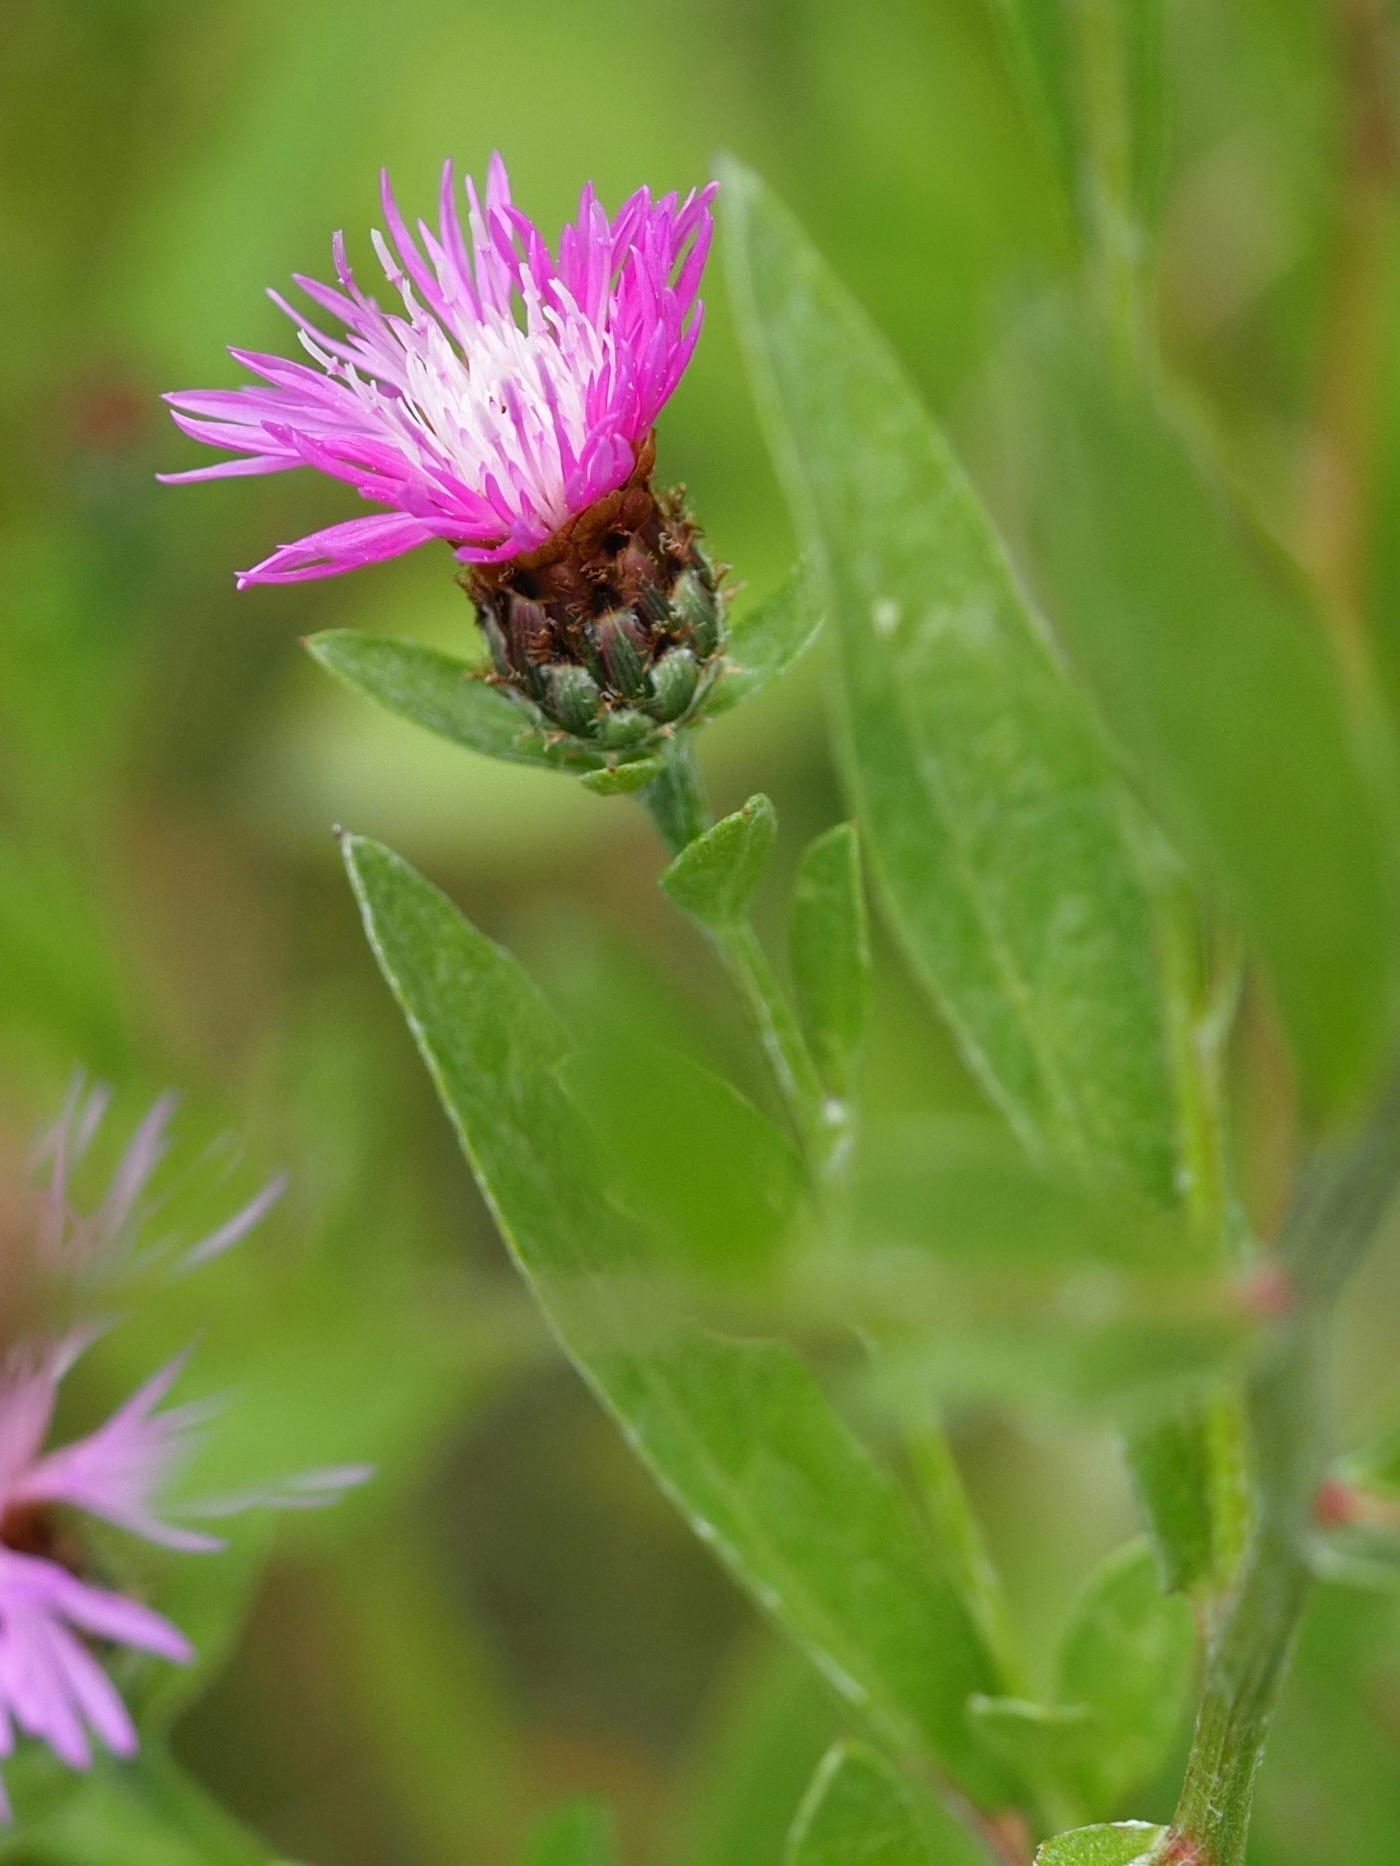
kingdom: Plantae
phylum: Tracheophyta
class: Magnoliopsida
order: Asterales
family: Asteraceae
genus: Centaurea
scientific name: Centaurea nigrescens
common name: Tyrol knapweed
